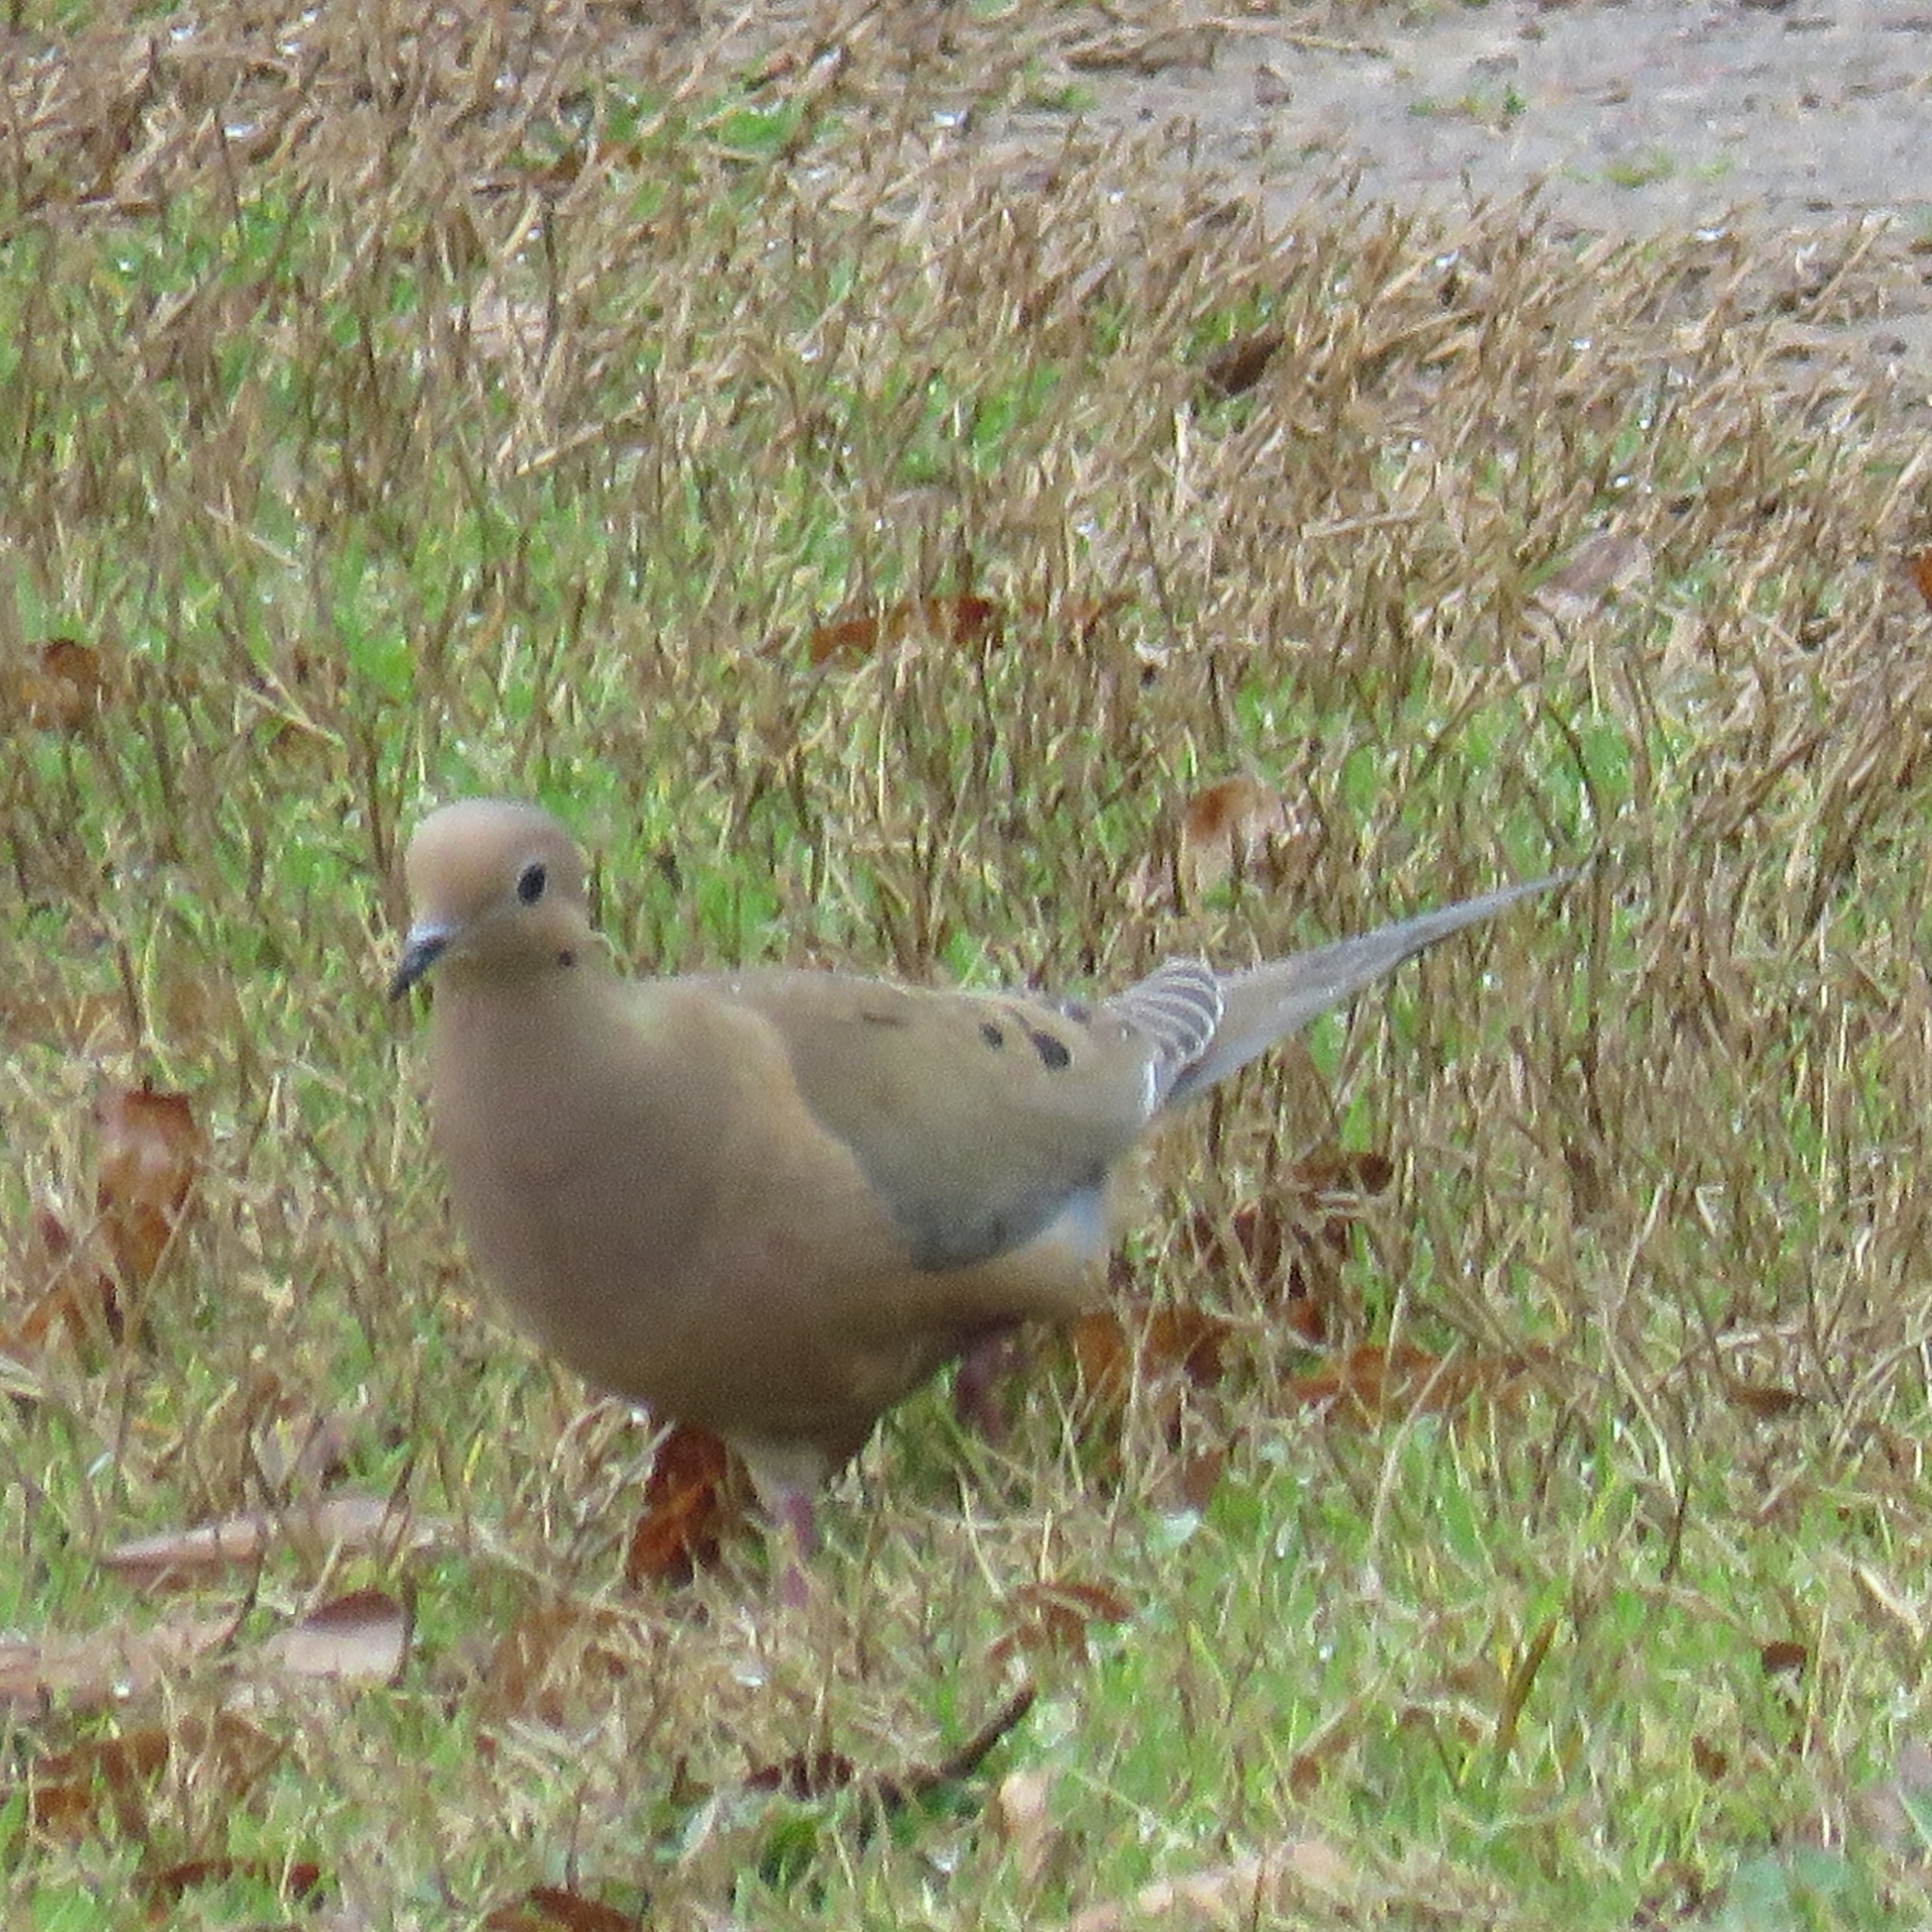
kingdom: Animalia
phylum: Chordata
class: Aves
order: Columbiformes
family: Columbidae
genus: Zenaida
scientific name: Zenaida macroura
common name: Mourning dove
